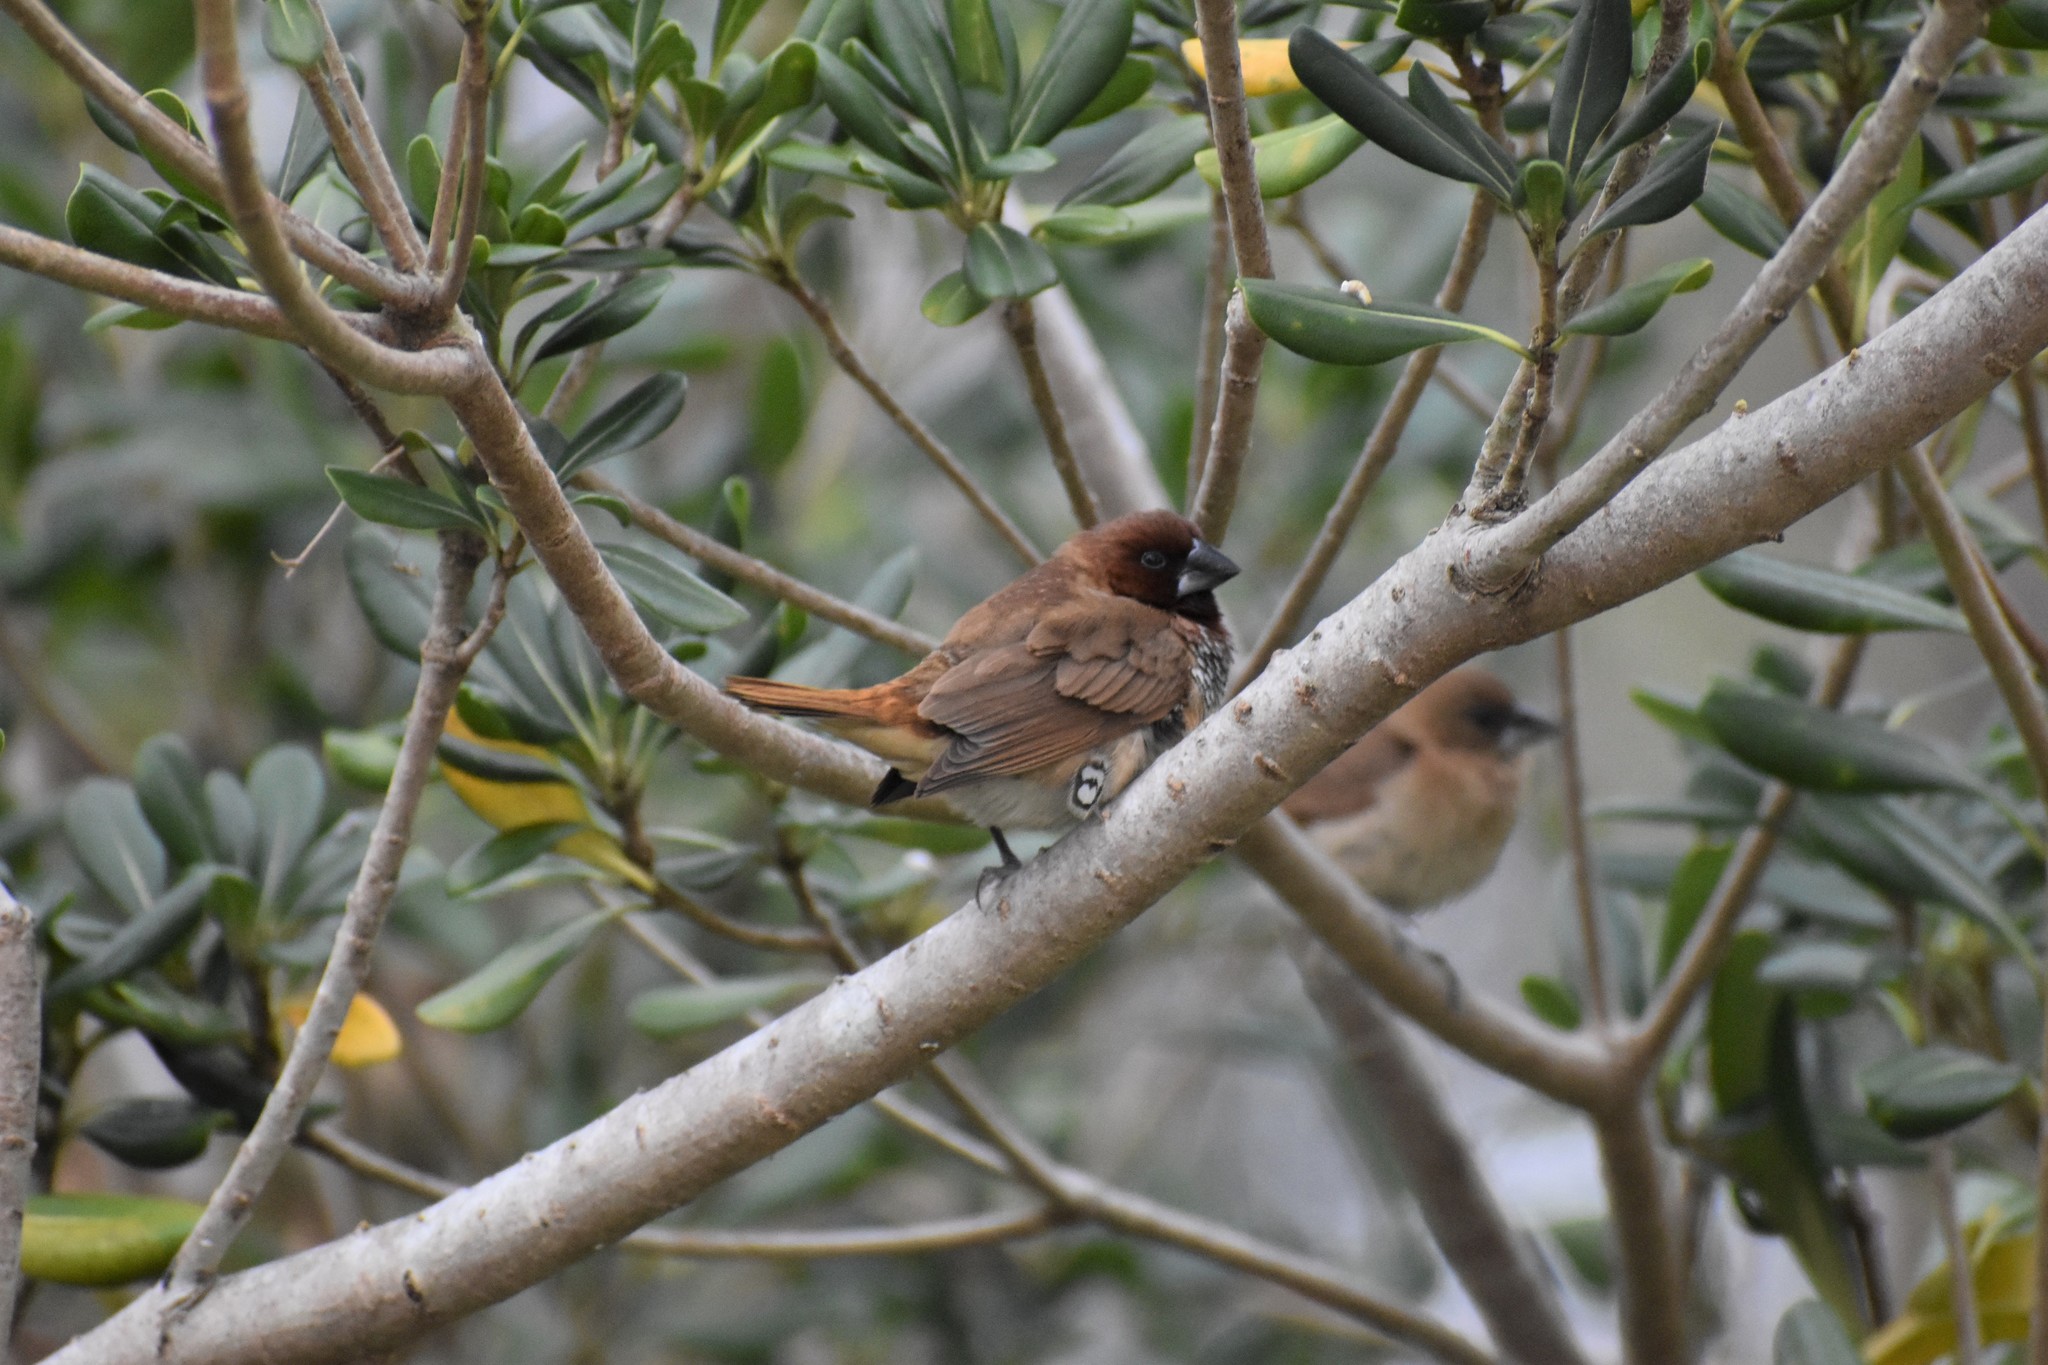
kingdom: Animalia
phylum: Chordata
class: Aves
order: Passeriformes
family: Estrildidae
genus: Lonchura
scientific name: Lonchura punctulata
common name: Scaly-breasted munia
